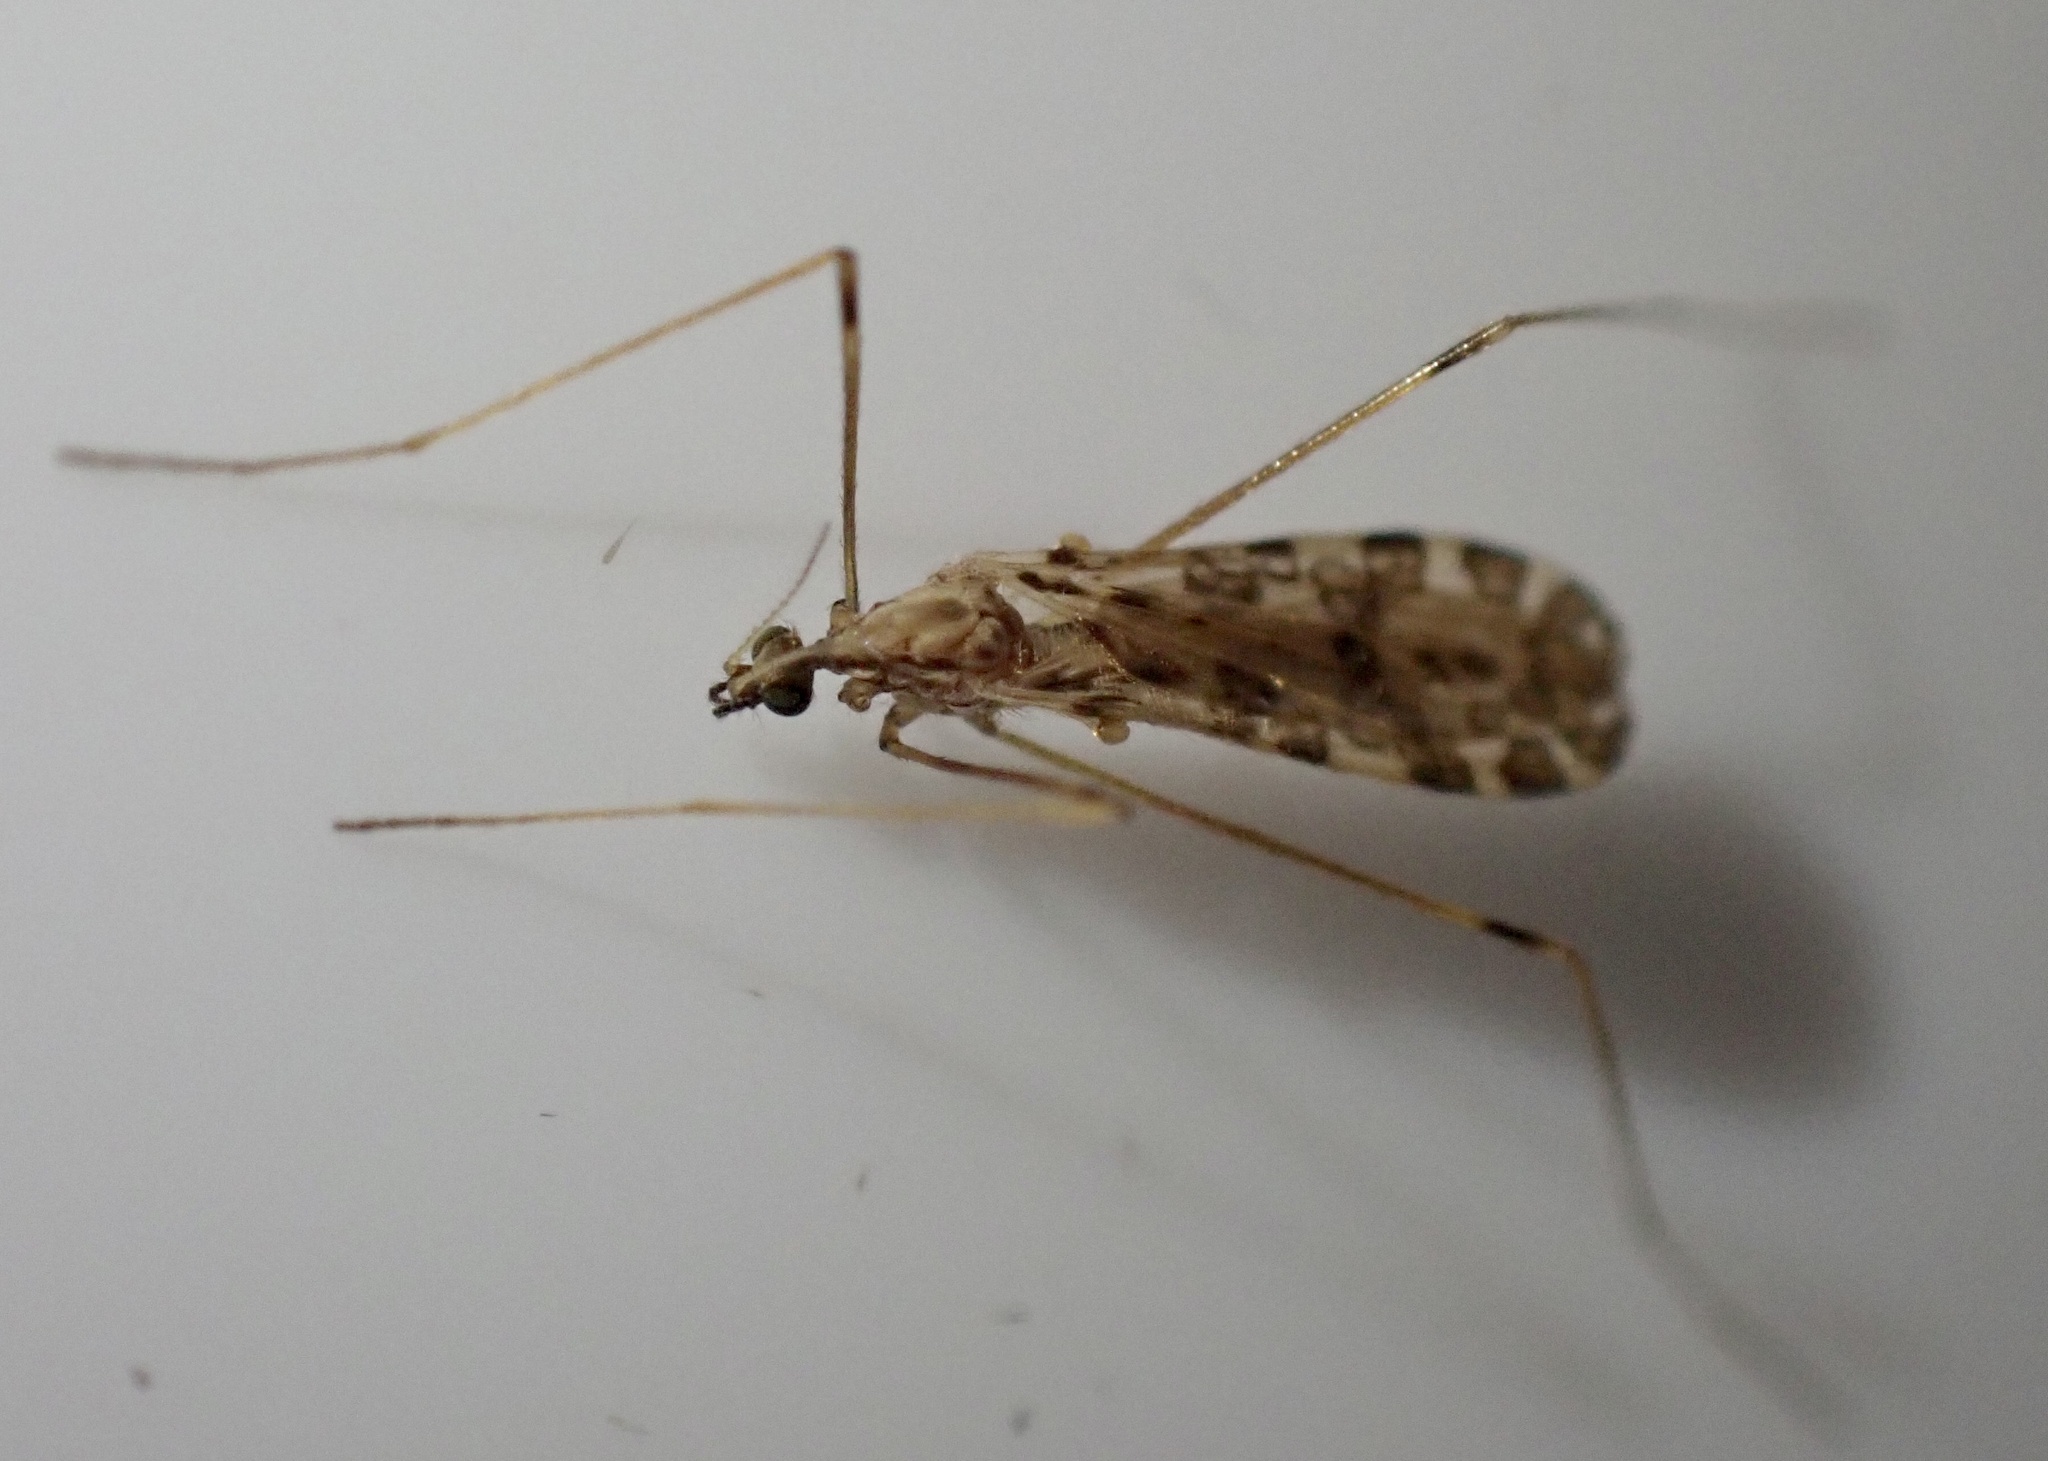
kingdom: Animalia
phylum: Arthropoda
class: Insecta
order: Diptera
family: Limoniidae
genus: Ilisia
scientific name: Ilisia maculata
